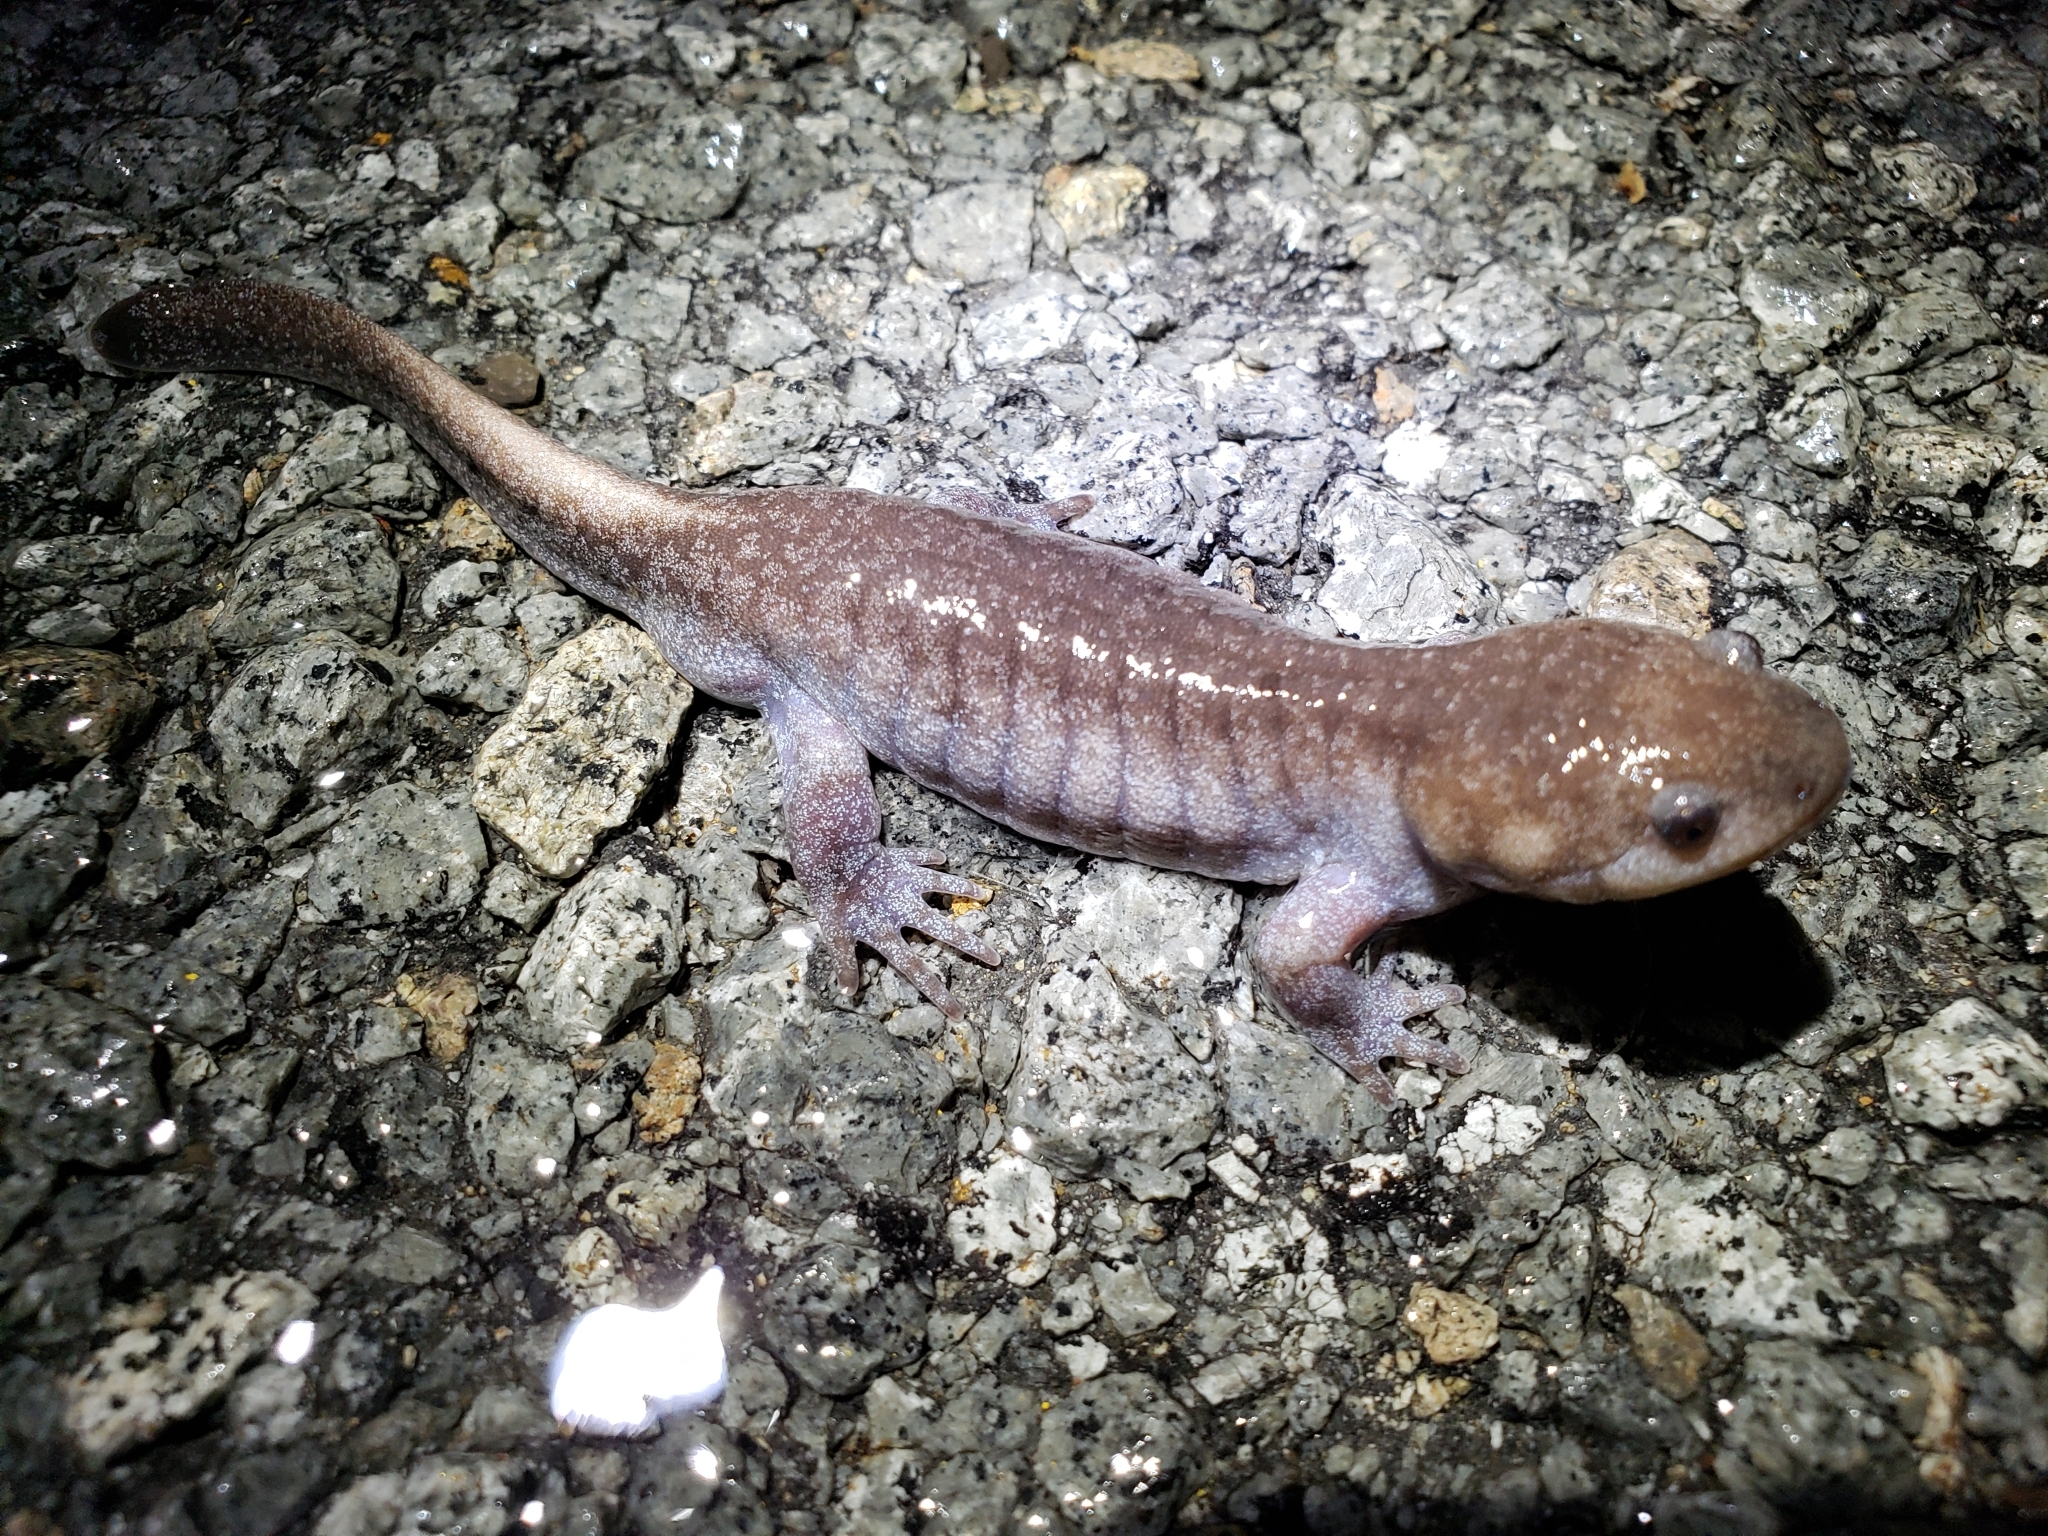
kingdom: Animalia
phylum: Chordata
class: Amphibia
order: Caudata
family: Ambystomatidae
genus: Ambystoma
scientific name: Ambystoma talpoideum
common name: Mole salamander
